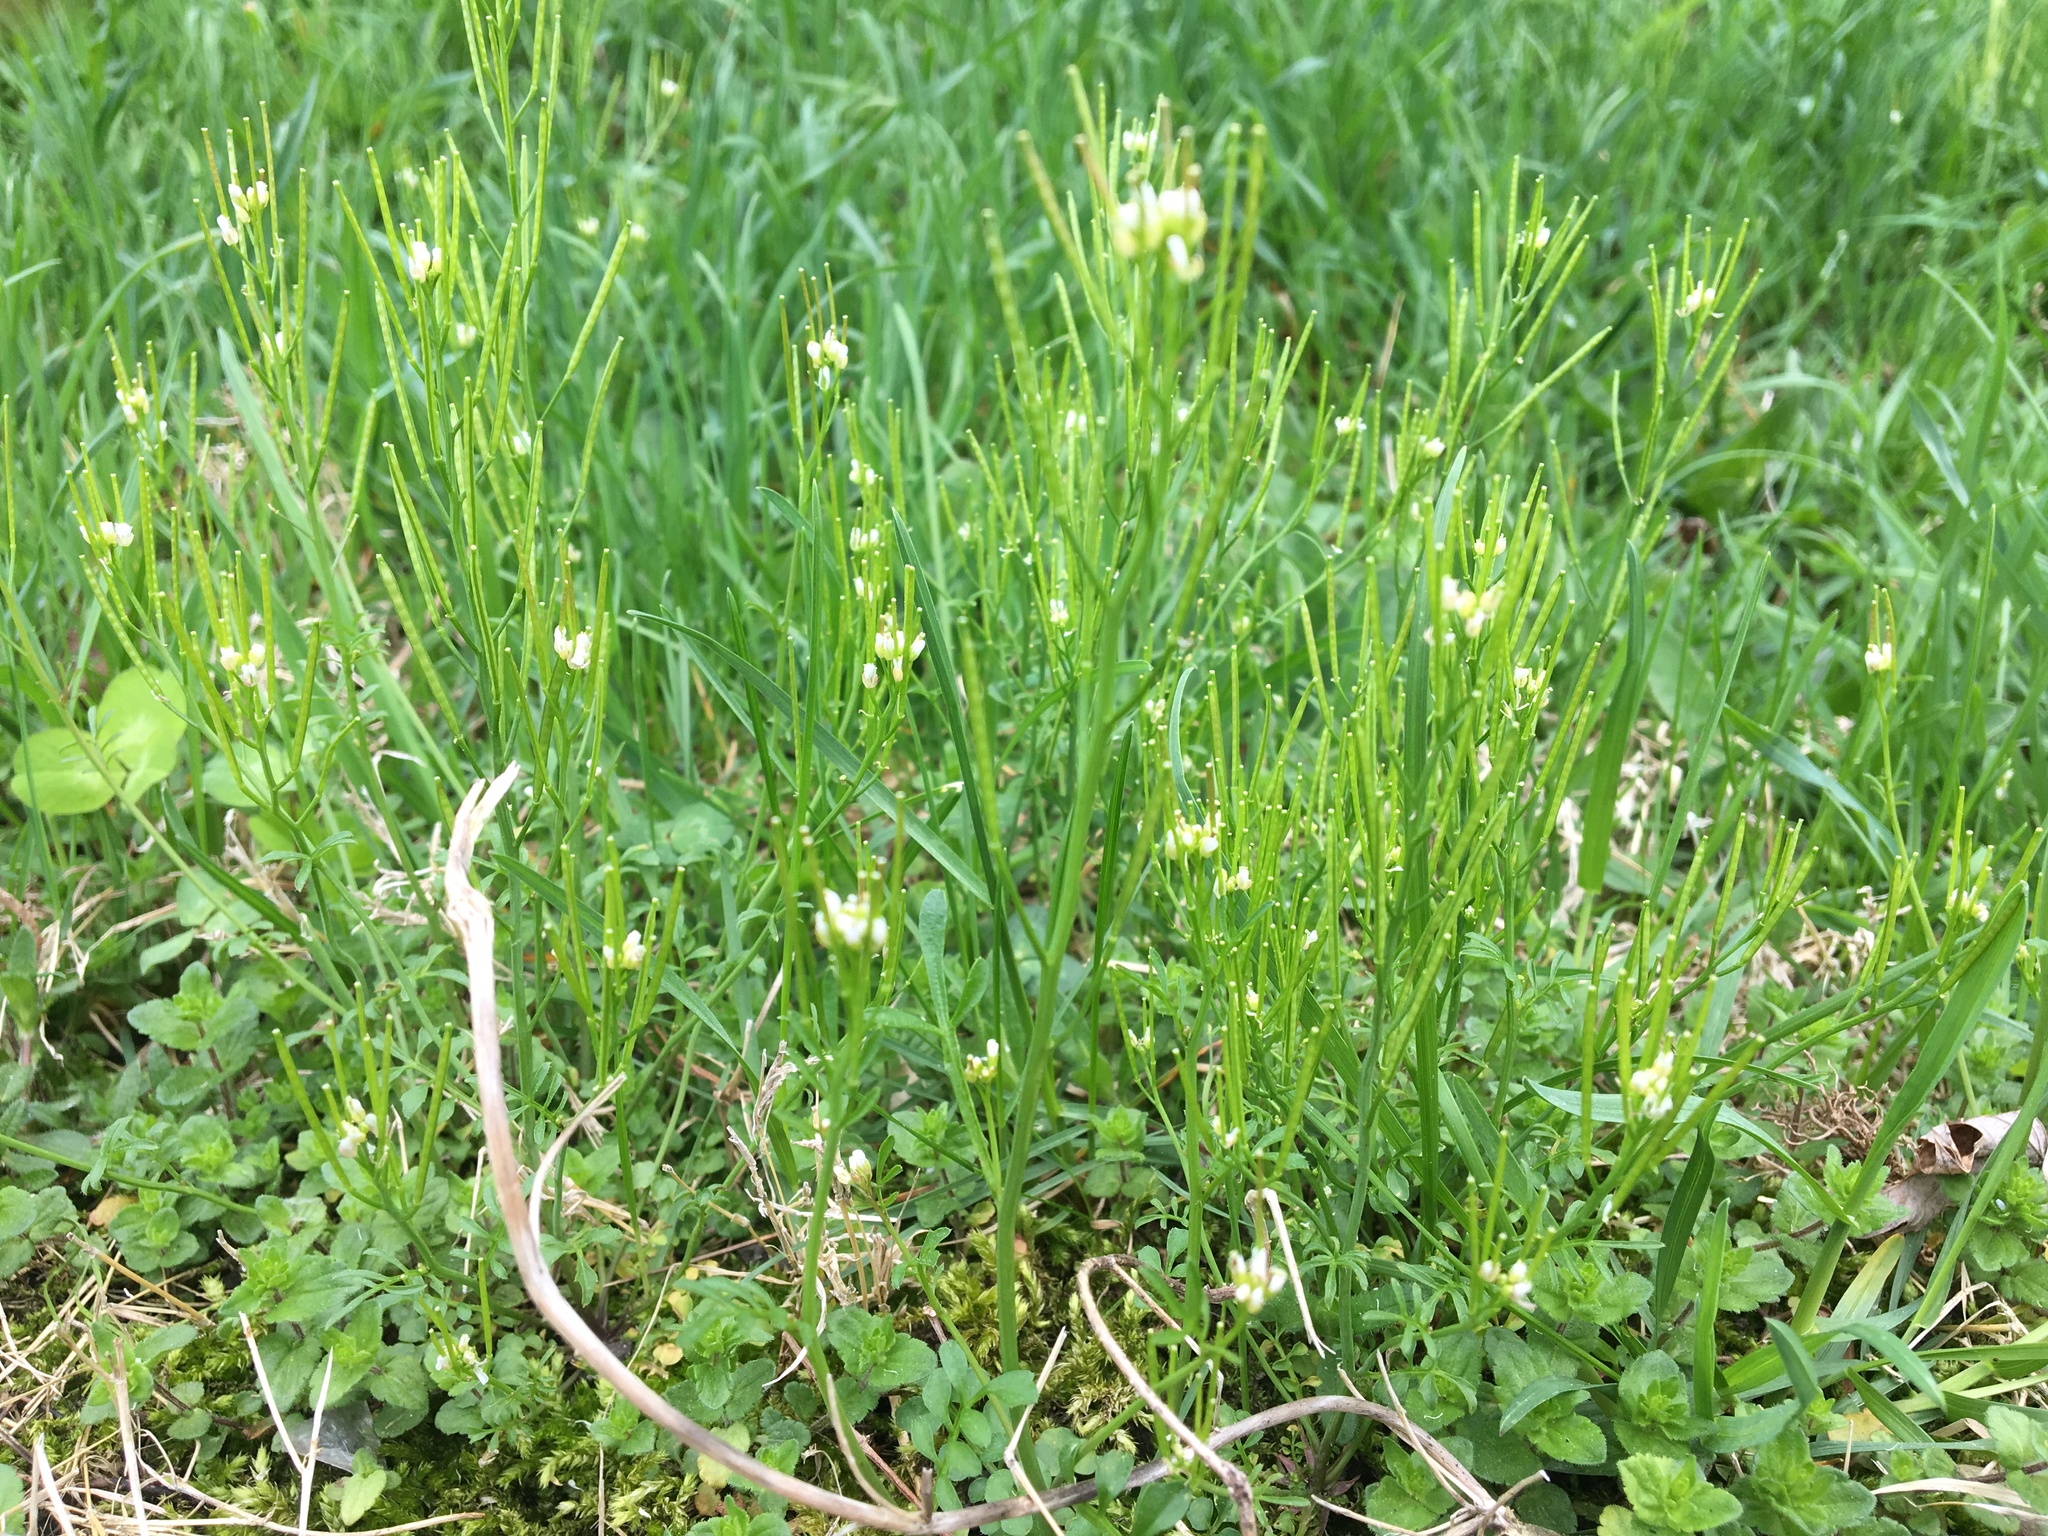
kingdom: Plantae
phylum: Tracheophyta
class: Magnoliopsida
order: Brassicales
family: Brassicaceae
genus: Cardamine
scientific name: Cardamine hirsuta
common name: Hairy bittercress
